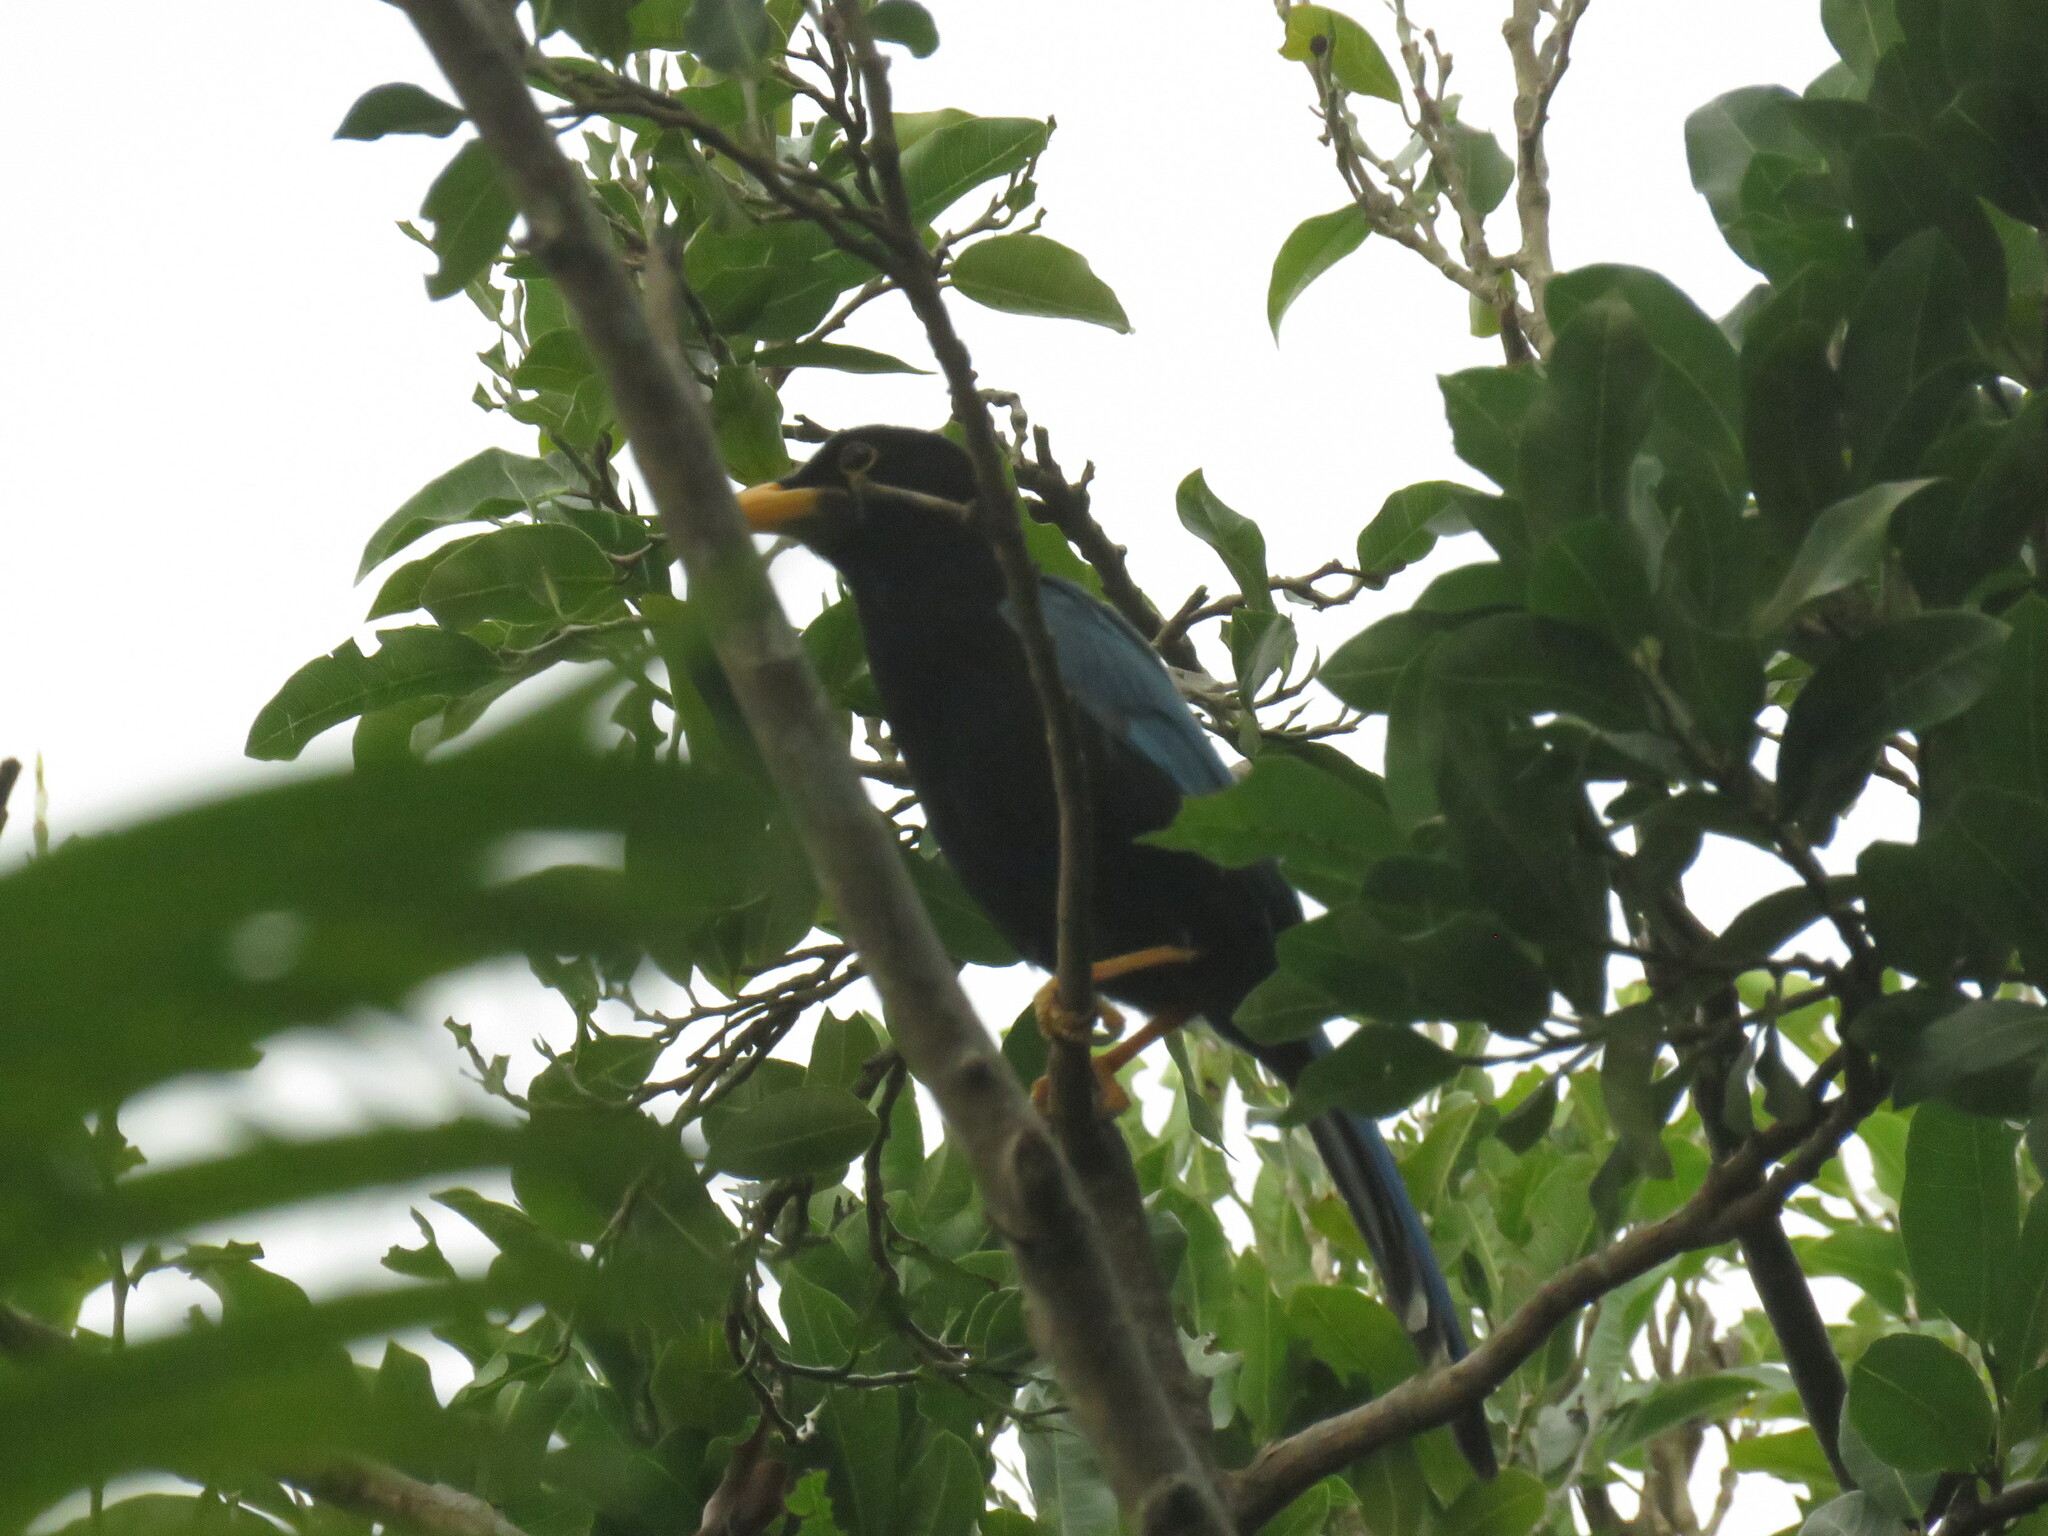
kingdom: Animalia
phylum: Chordata
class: Aves
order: Passeriformes
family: Corvidae
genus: Cyanocorax
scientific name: Cyanocorax yucatanicus
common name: Yucatan jay
